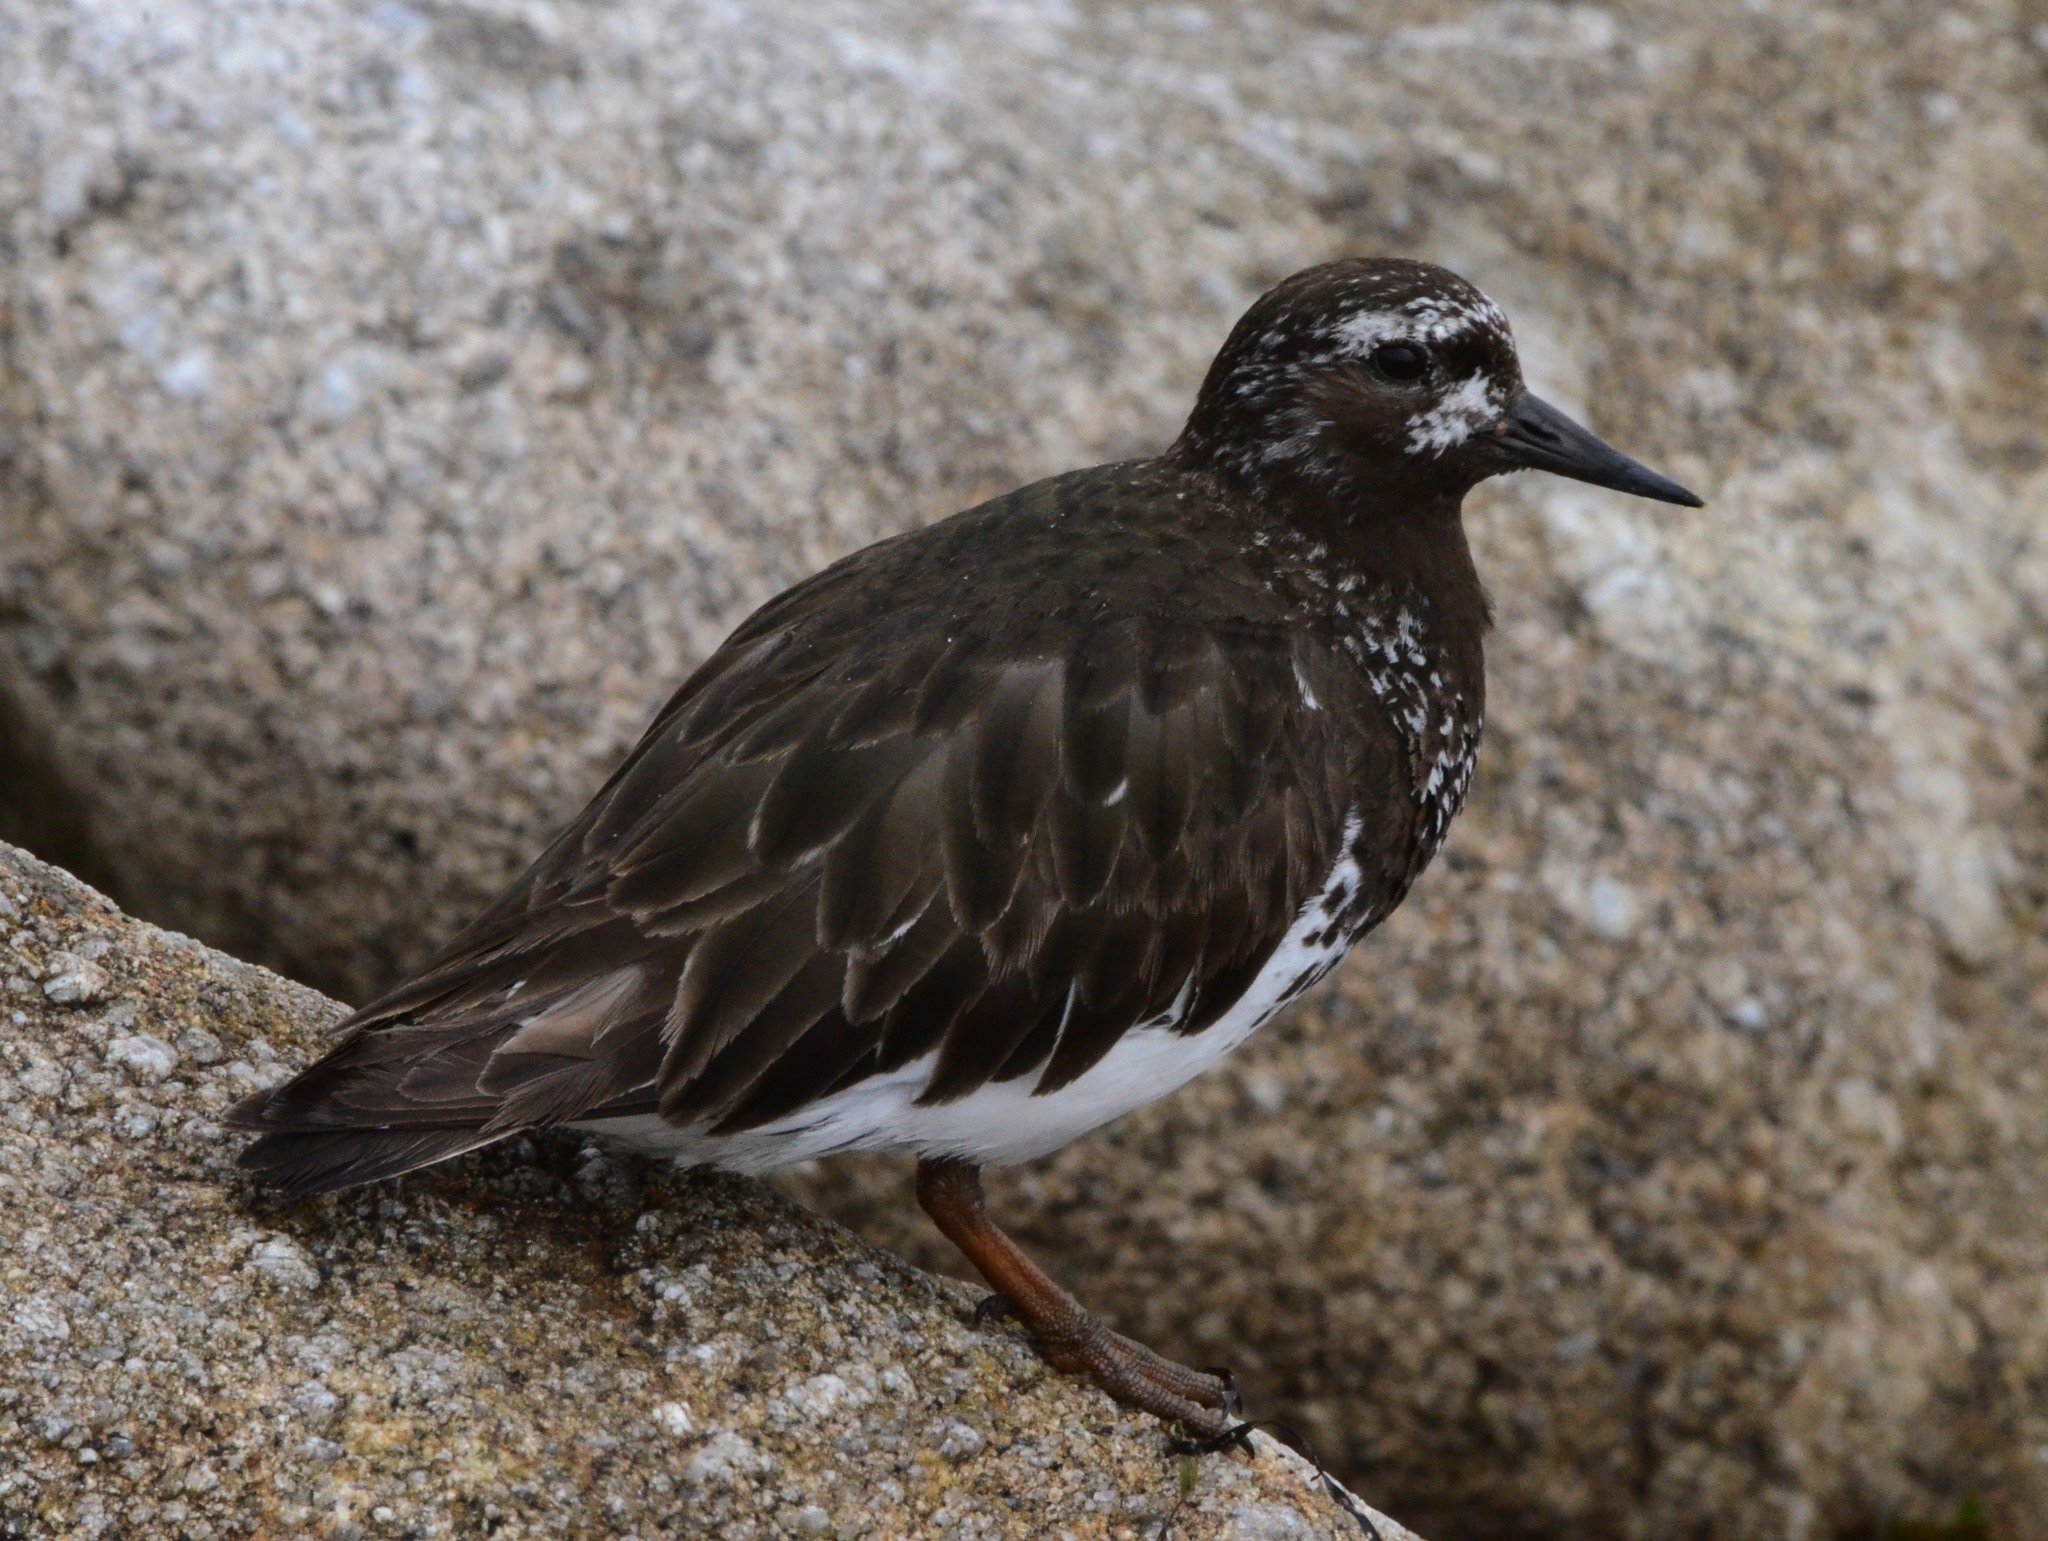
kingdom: Animalia
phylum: Chordata
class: Aves
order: Charadriiformes
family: Scolopacidae
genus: Arenaria
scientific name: Arenaria melanocephala
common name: Black turnstone
